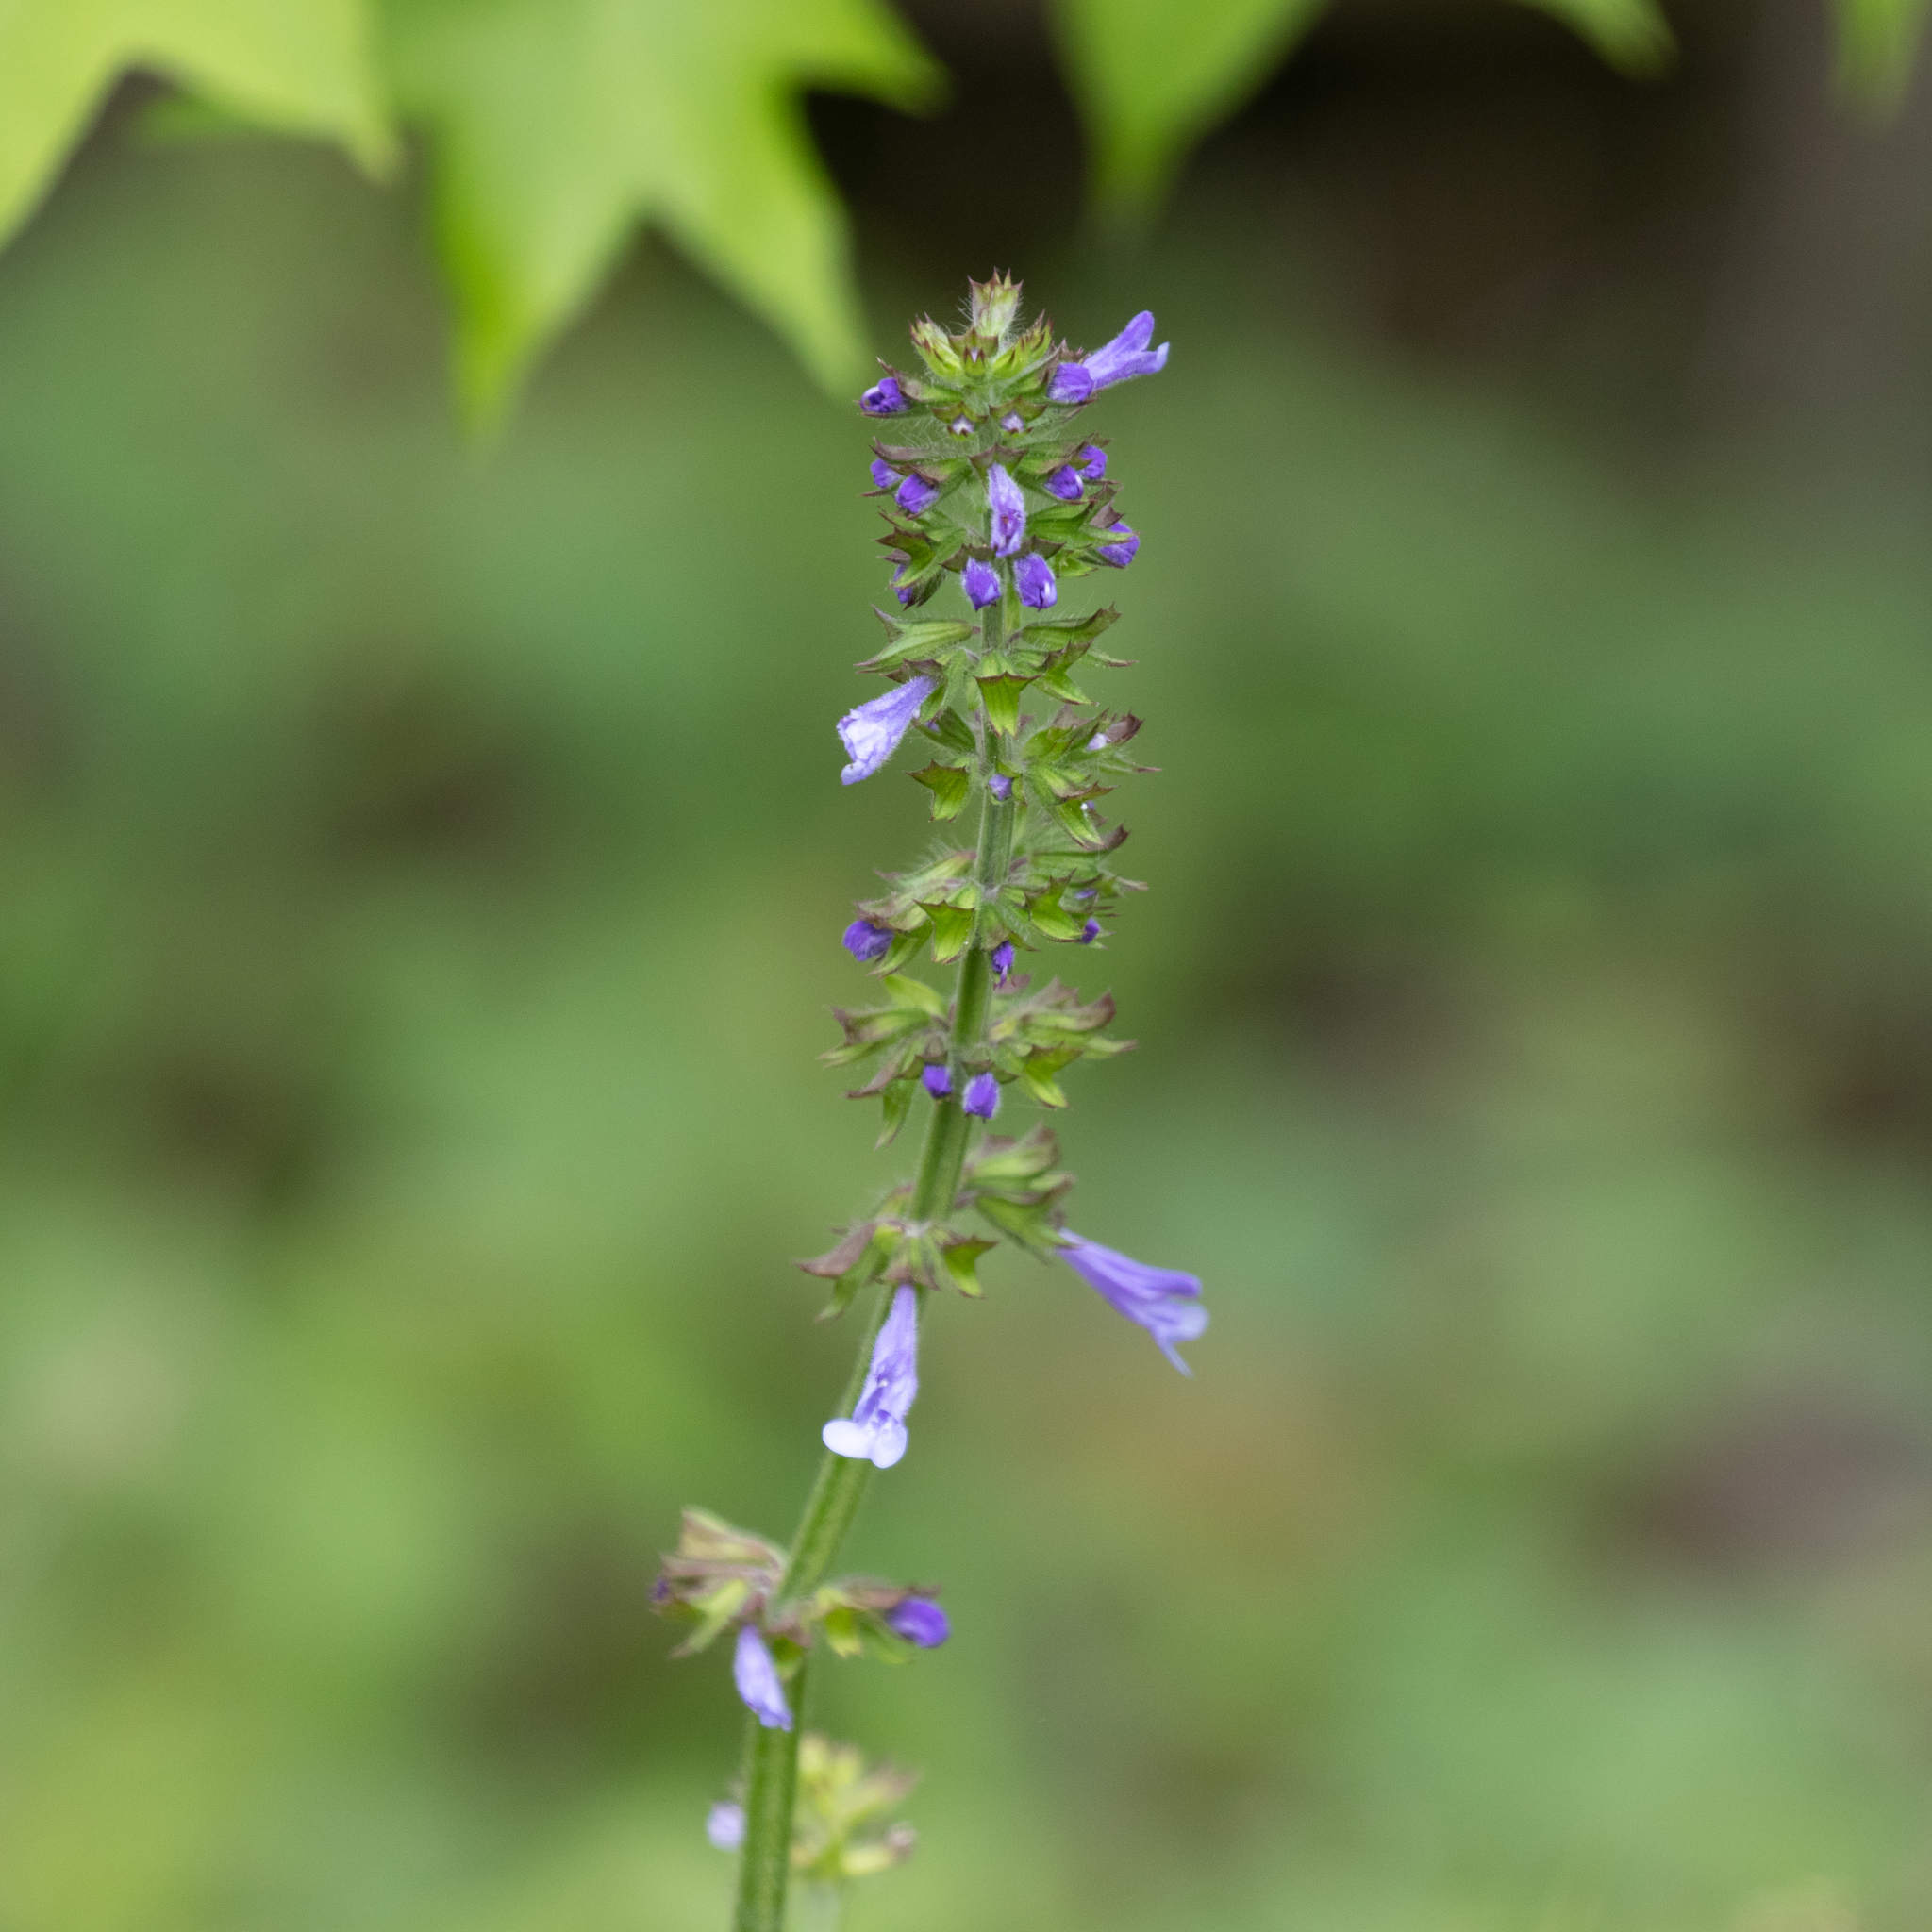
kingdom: Plantae
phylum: Tracheophyta
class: Magnoliopsida
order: Lamiales
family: Lamiaceae
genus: Salvia
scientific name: Salvia lyrata
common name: Cancerweed
